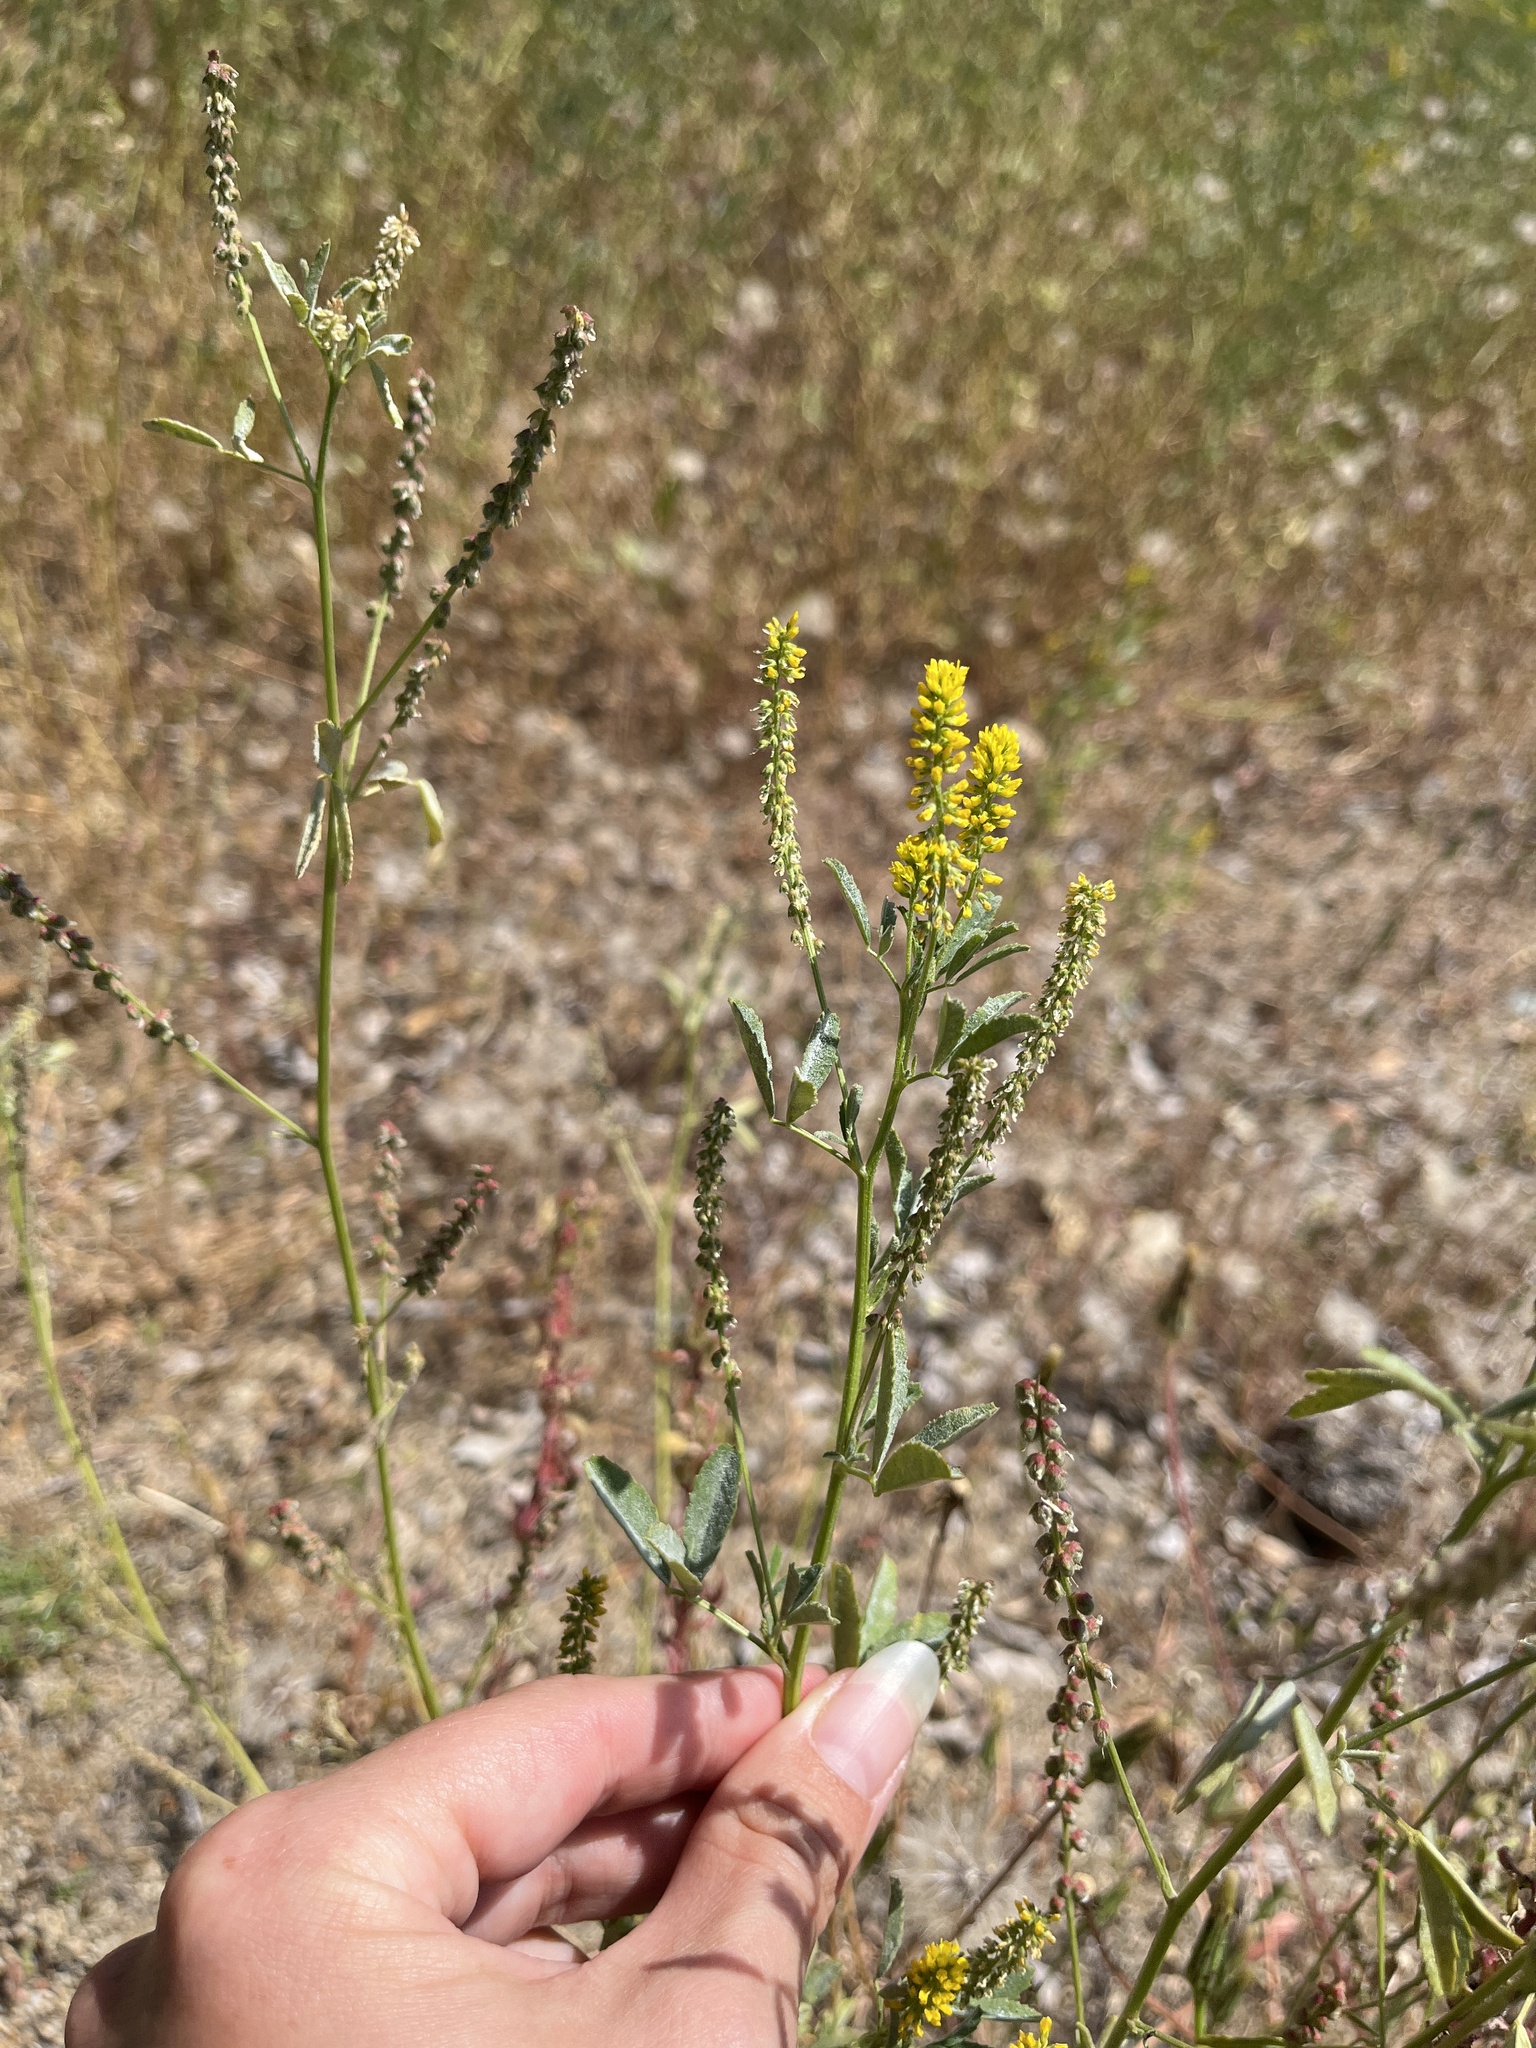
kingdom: Plantae
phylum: Tracheophyta
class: Magnoliopsida
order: Fabales
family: Fabaceae
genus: Melilotus
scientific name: Melilotus indicus
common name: Small melilot
